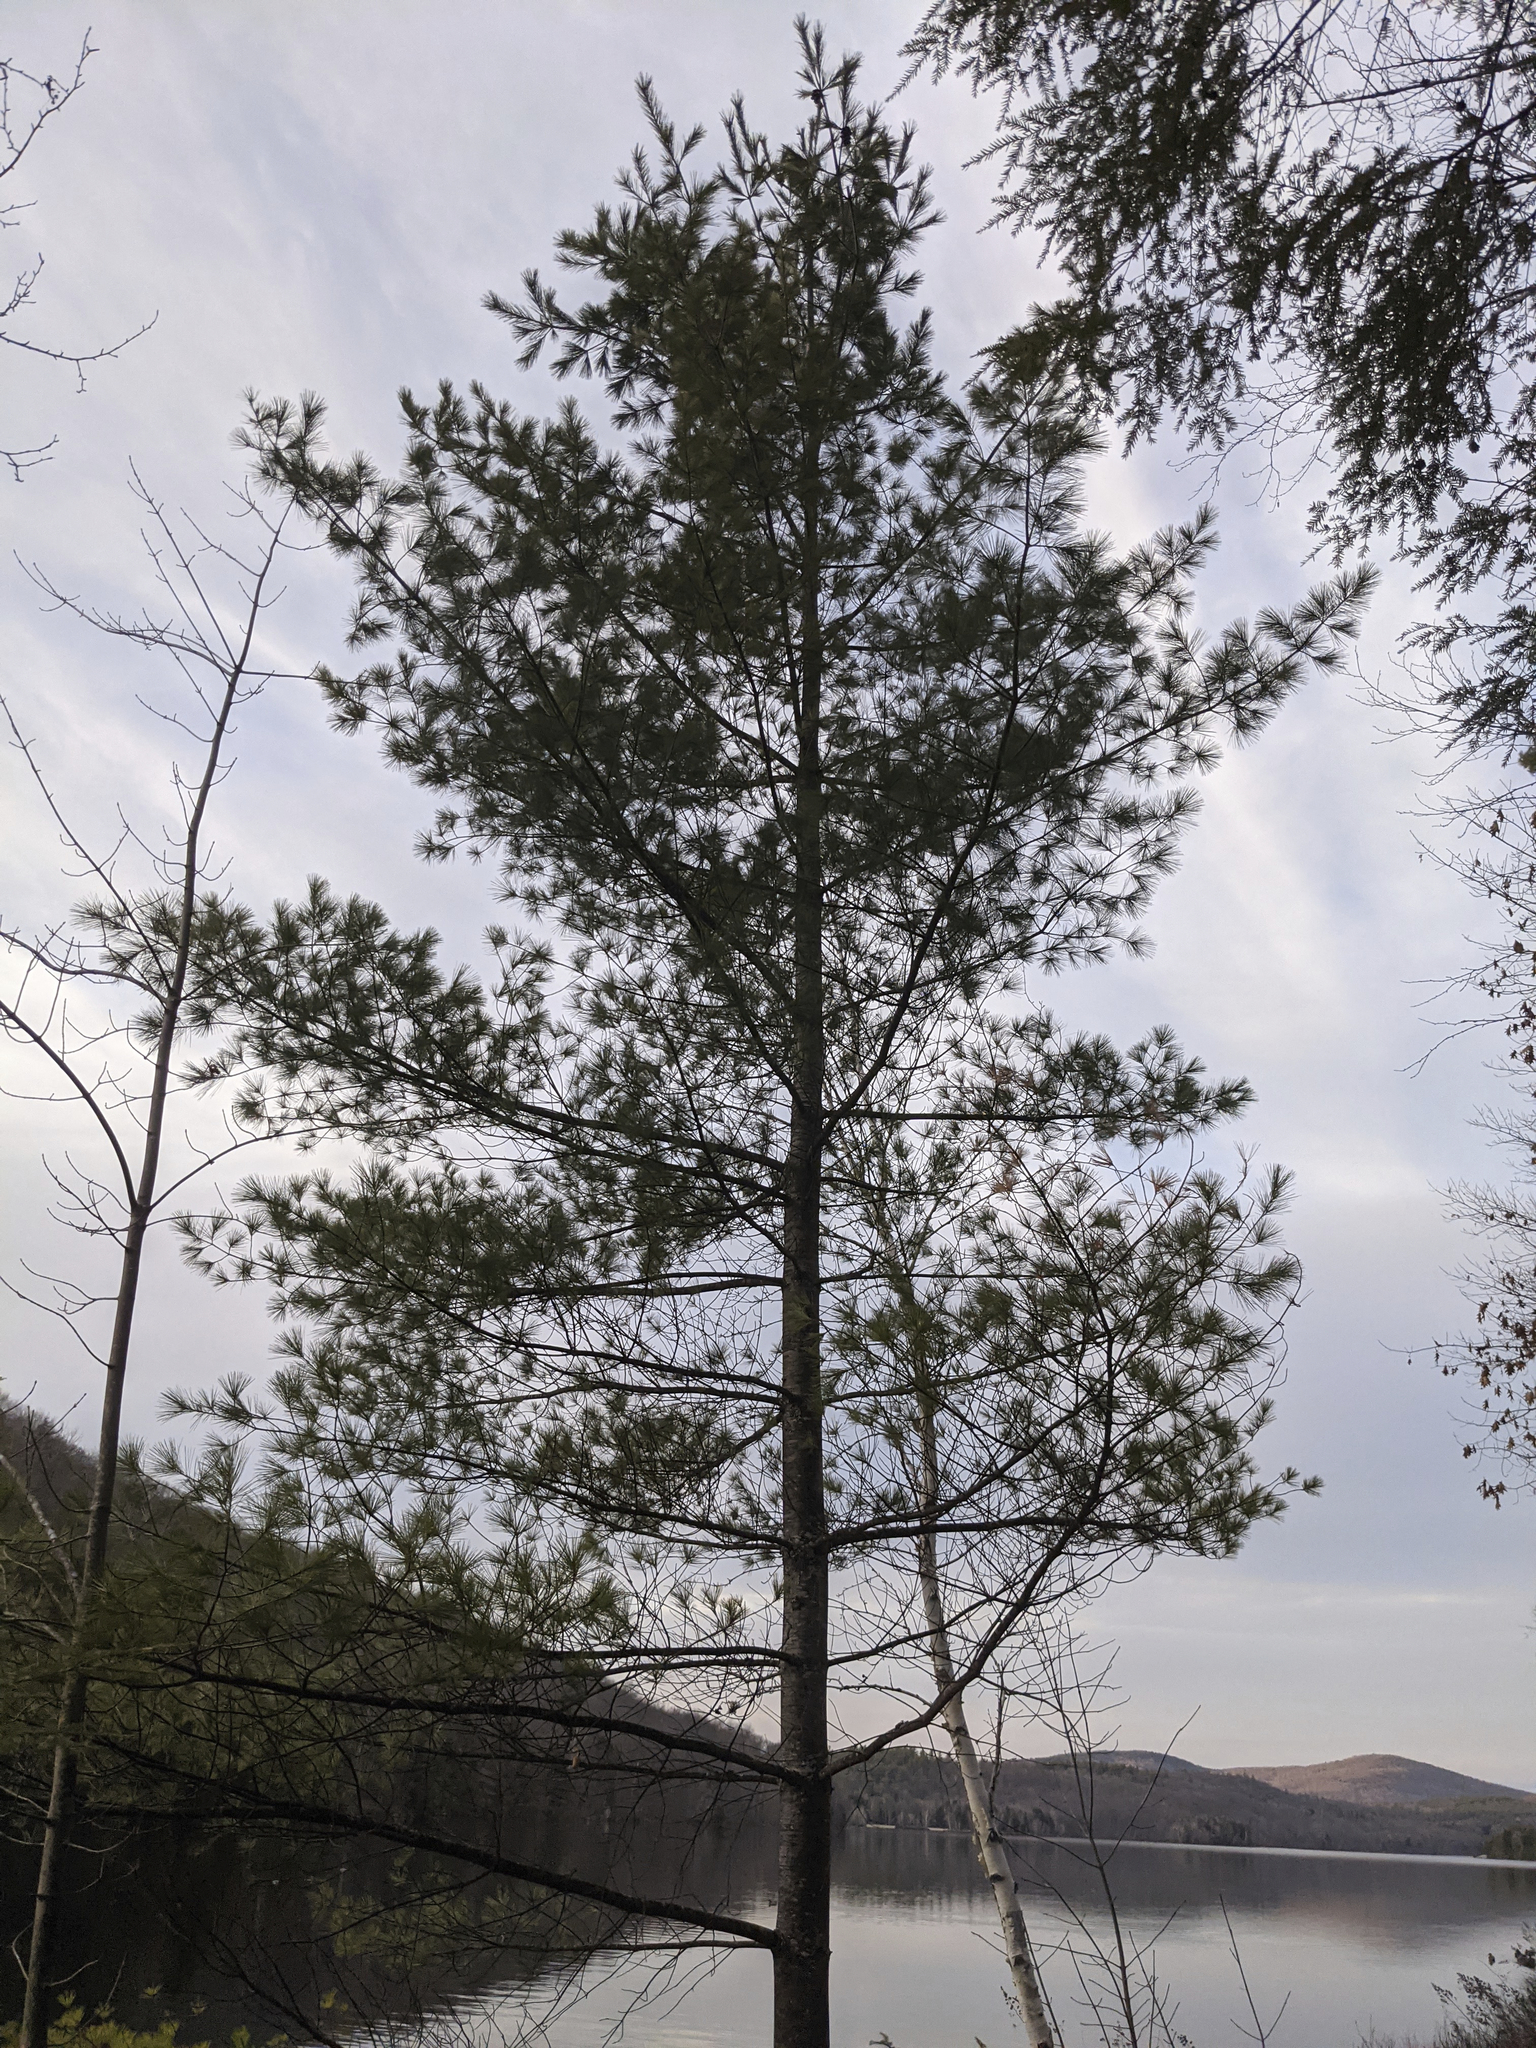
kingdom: Plantae
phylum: Tracheophyta
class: Pinopsida
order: Pinales
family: Pinaceae
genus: Pinus
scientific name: Pinus strobus
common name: Weymouth pine
